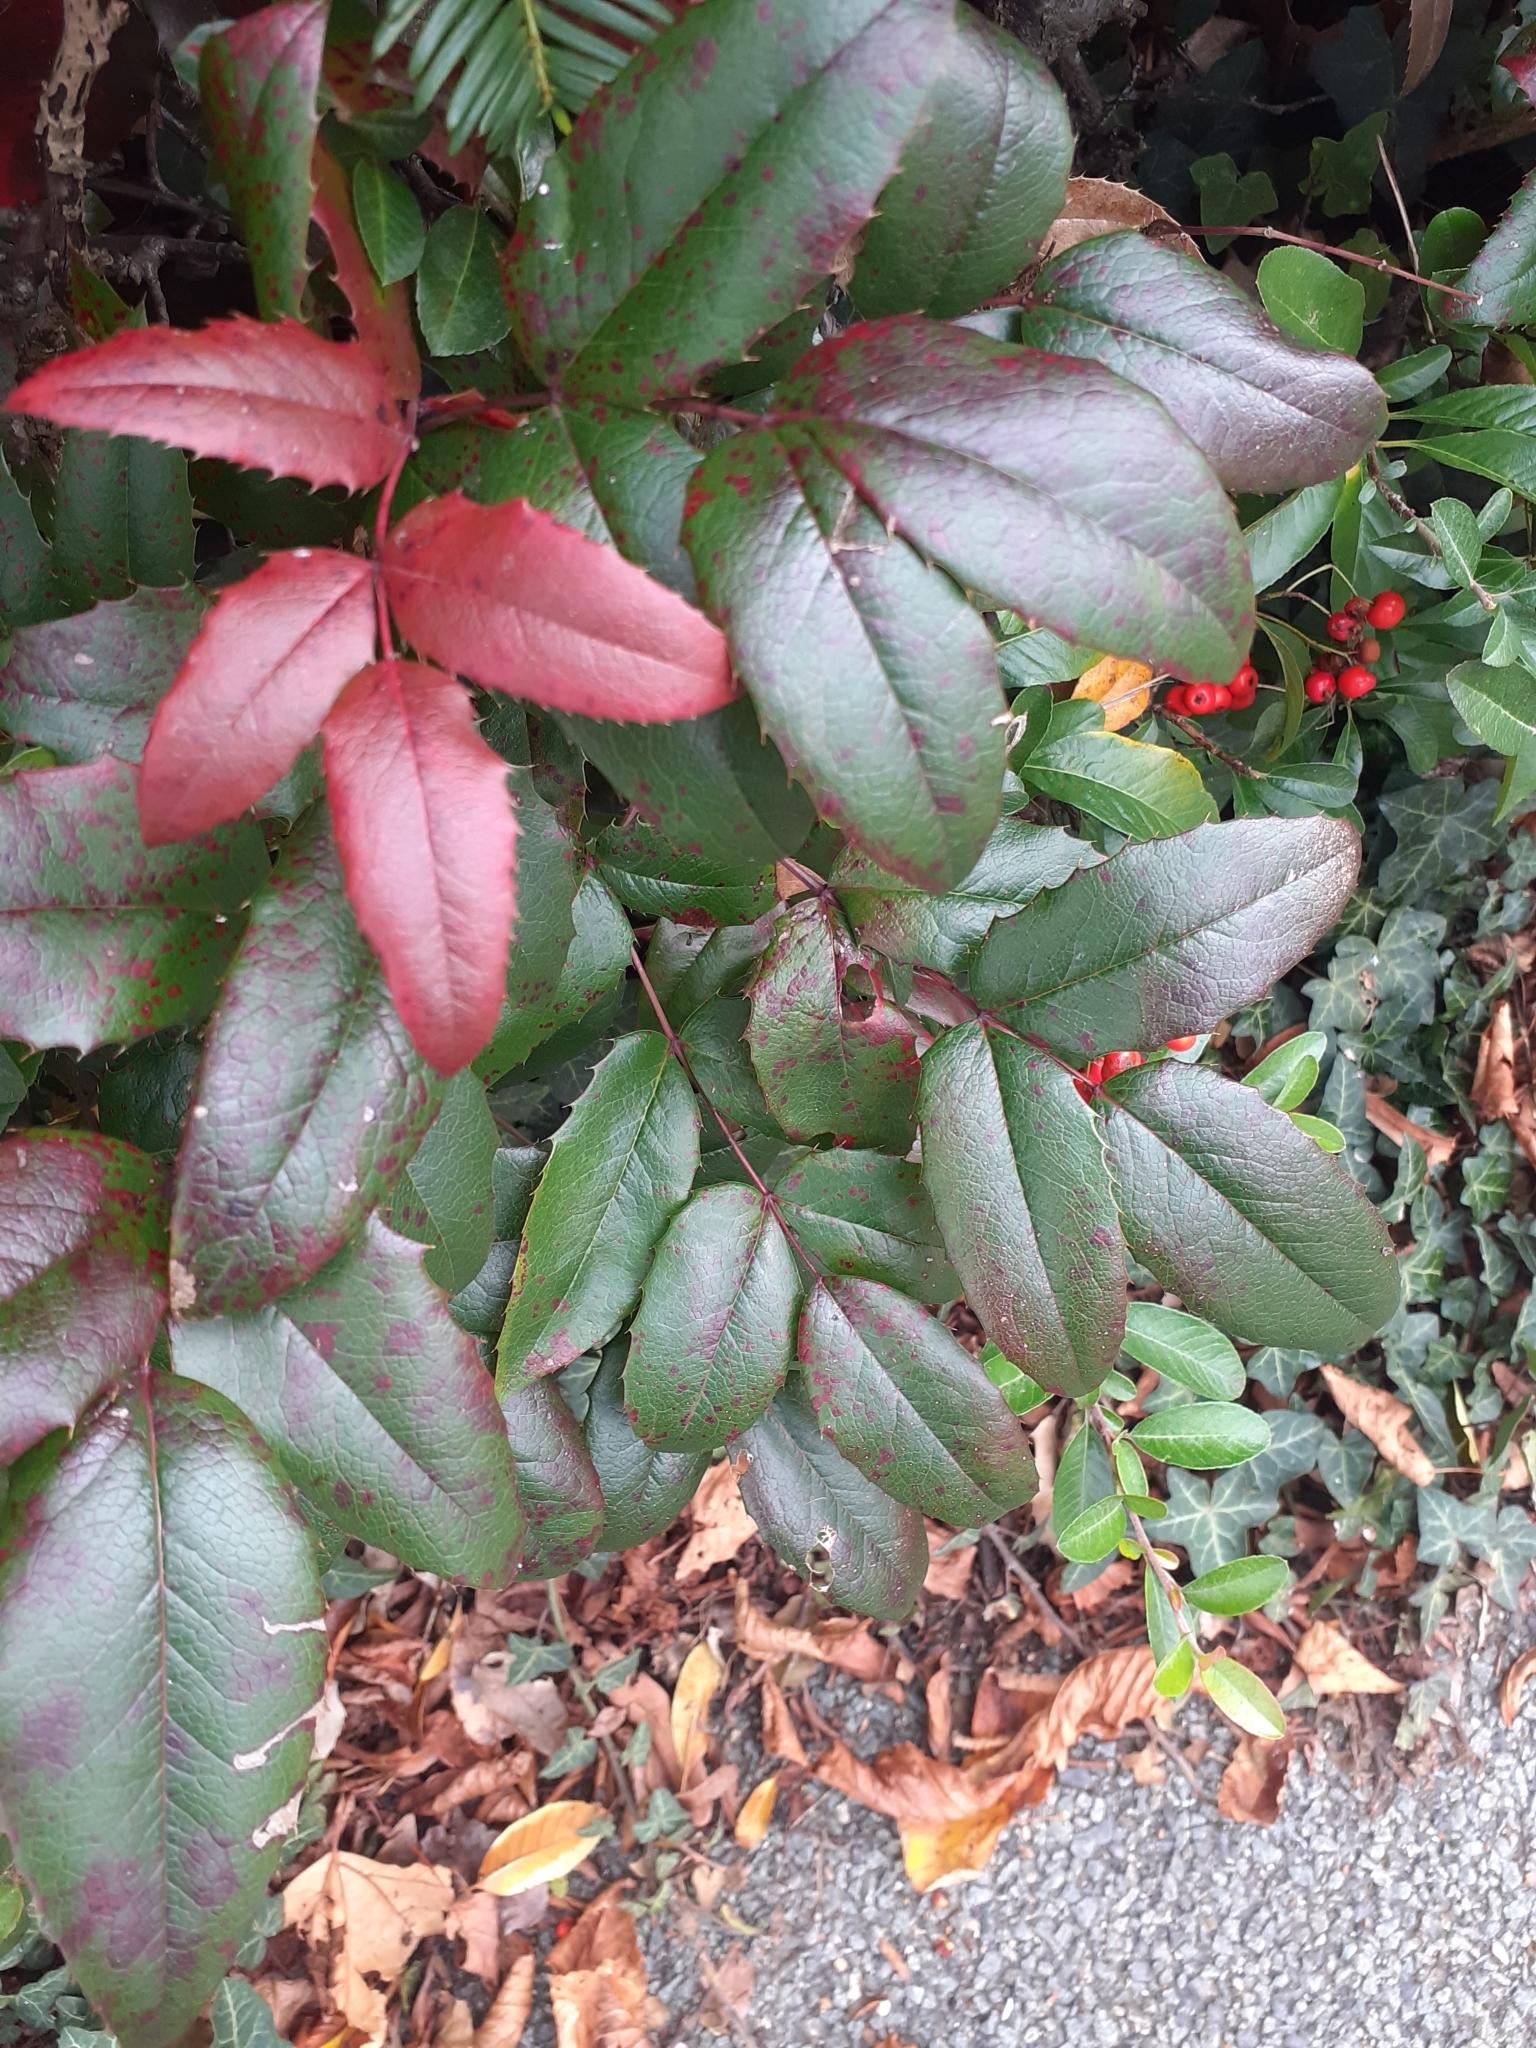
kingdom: Fungi
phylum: Basidiomycota
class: Pucciniomycetes
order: Pucciniales
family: Pucciniaceae
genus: Cumminsiella
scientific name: Cumminsiella mirabilissima
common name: Mahonia rust
